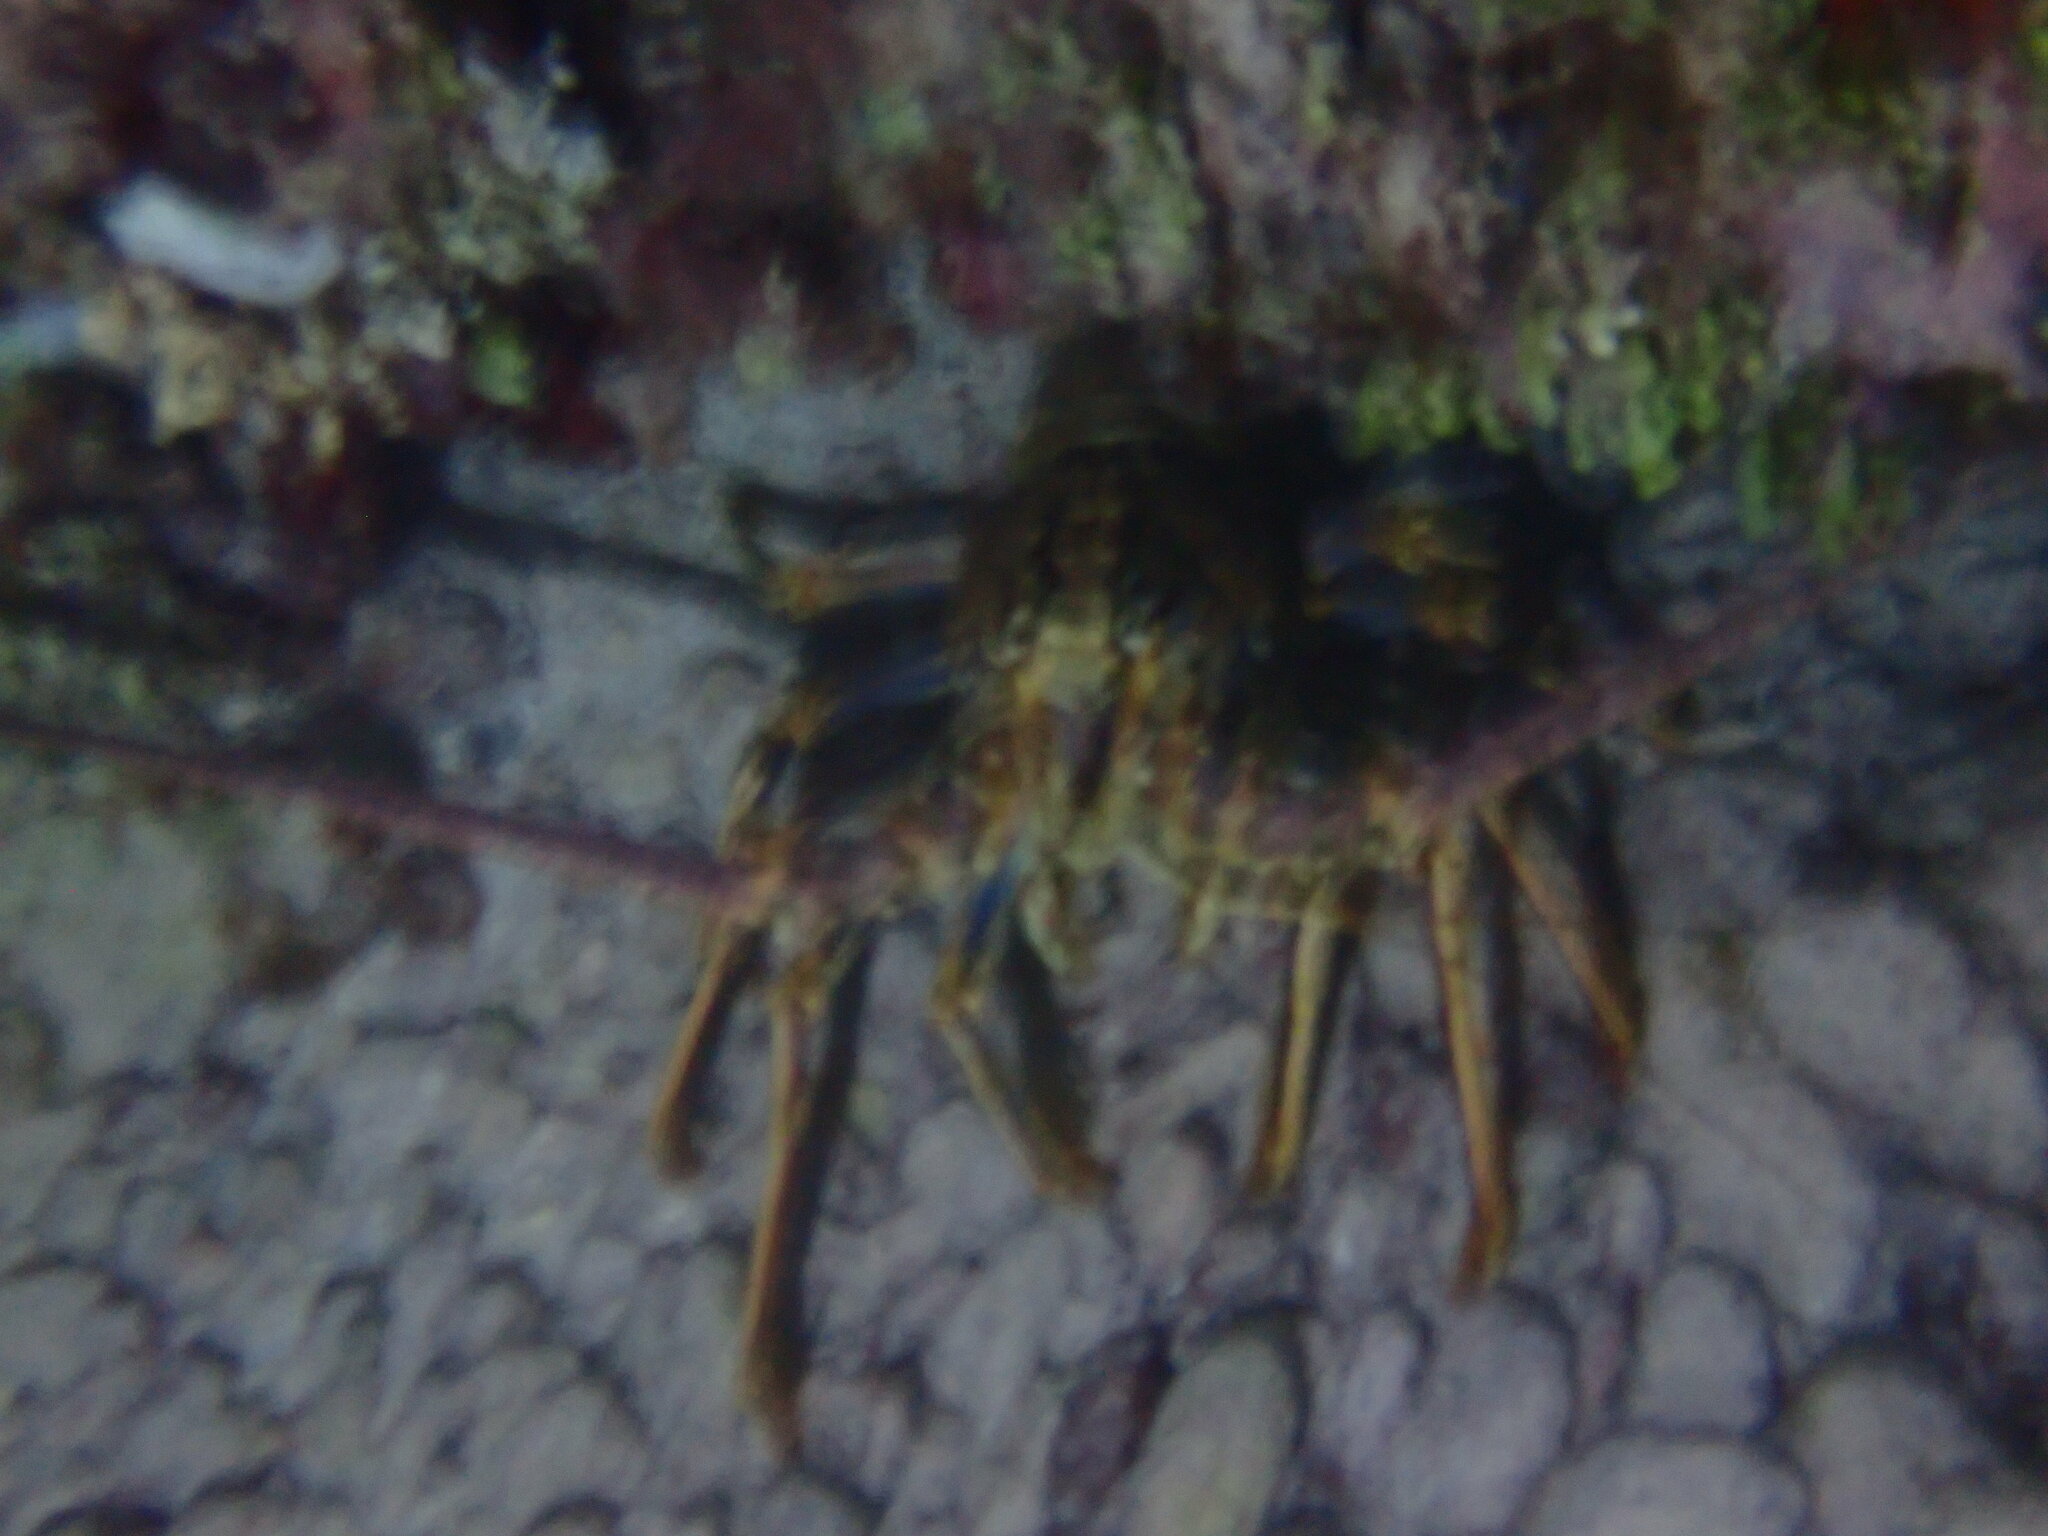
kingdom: Animalia
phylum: Arthropoda
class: Malacostraca
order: Decapoda
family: Palinuridae
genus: Panulirus
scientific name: Panulirus argus
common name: Caribbean spiny lobster
